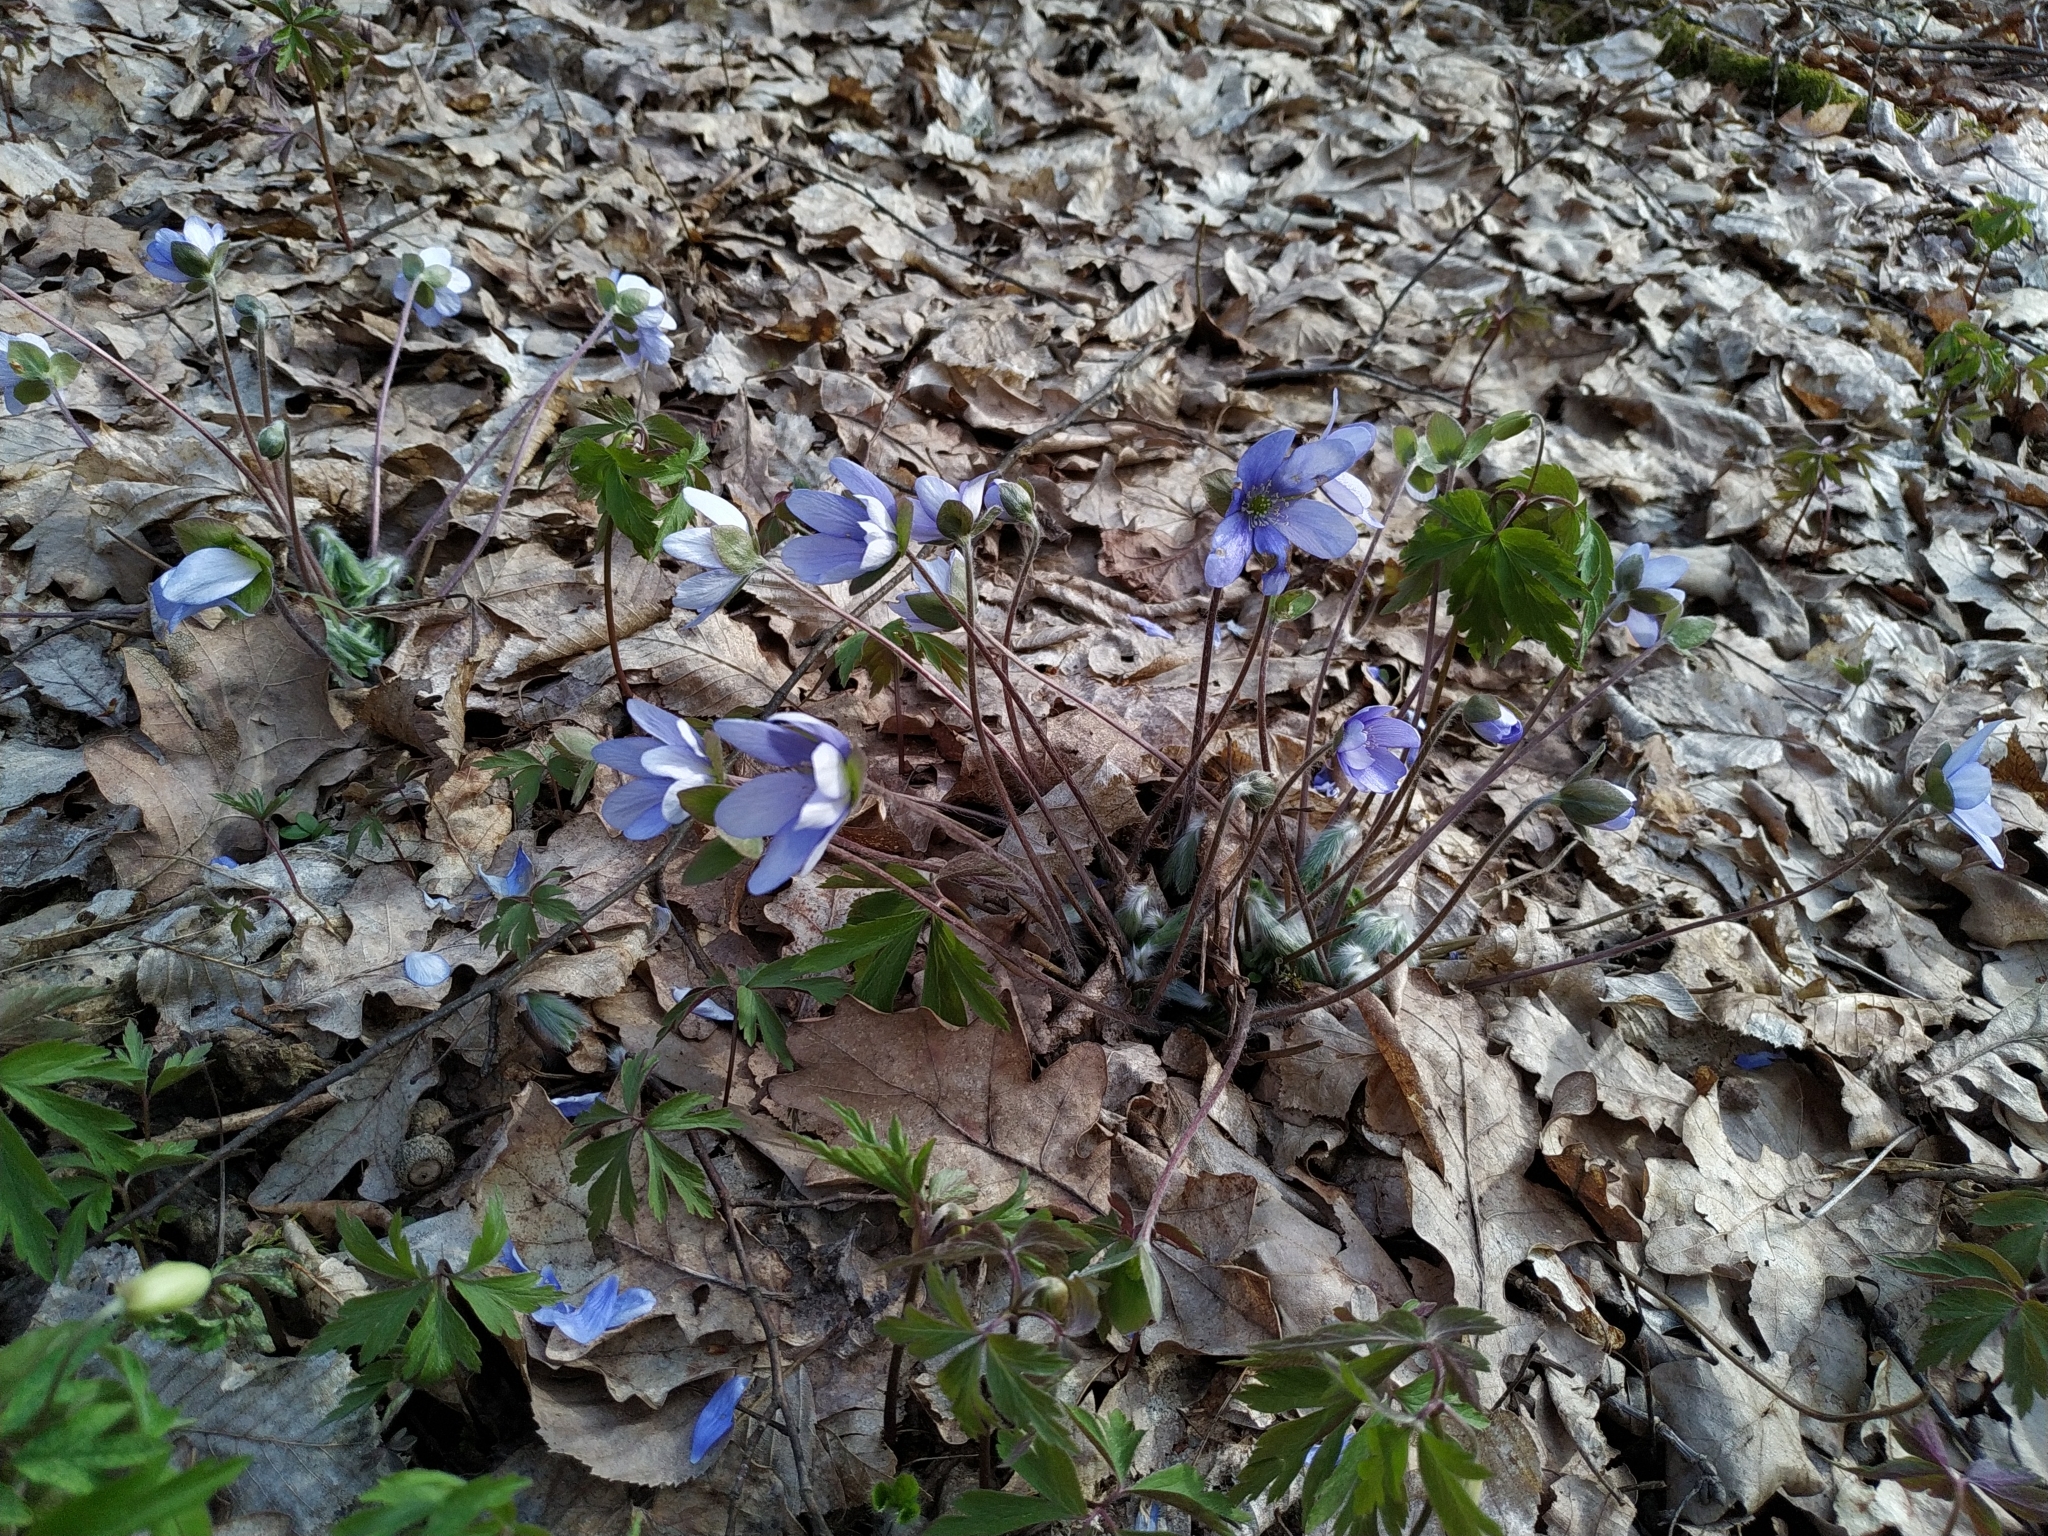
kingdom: Plantae
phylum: Tracheophyta
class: Magnoliopsida
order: Ranunculales
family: Ranunculaceae
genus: Hepatica
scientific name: Hepatica nobilis
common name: Liverleaf
